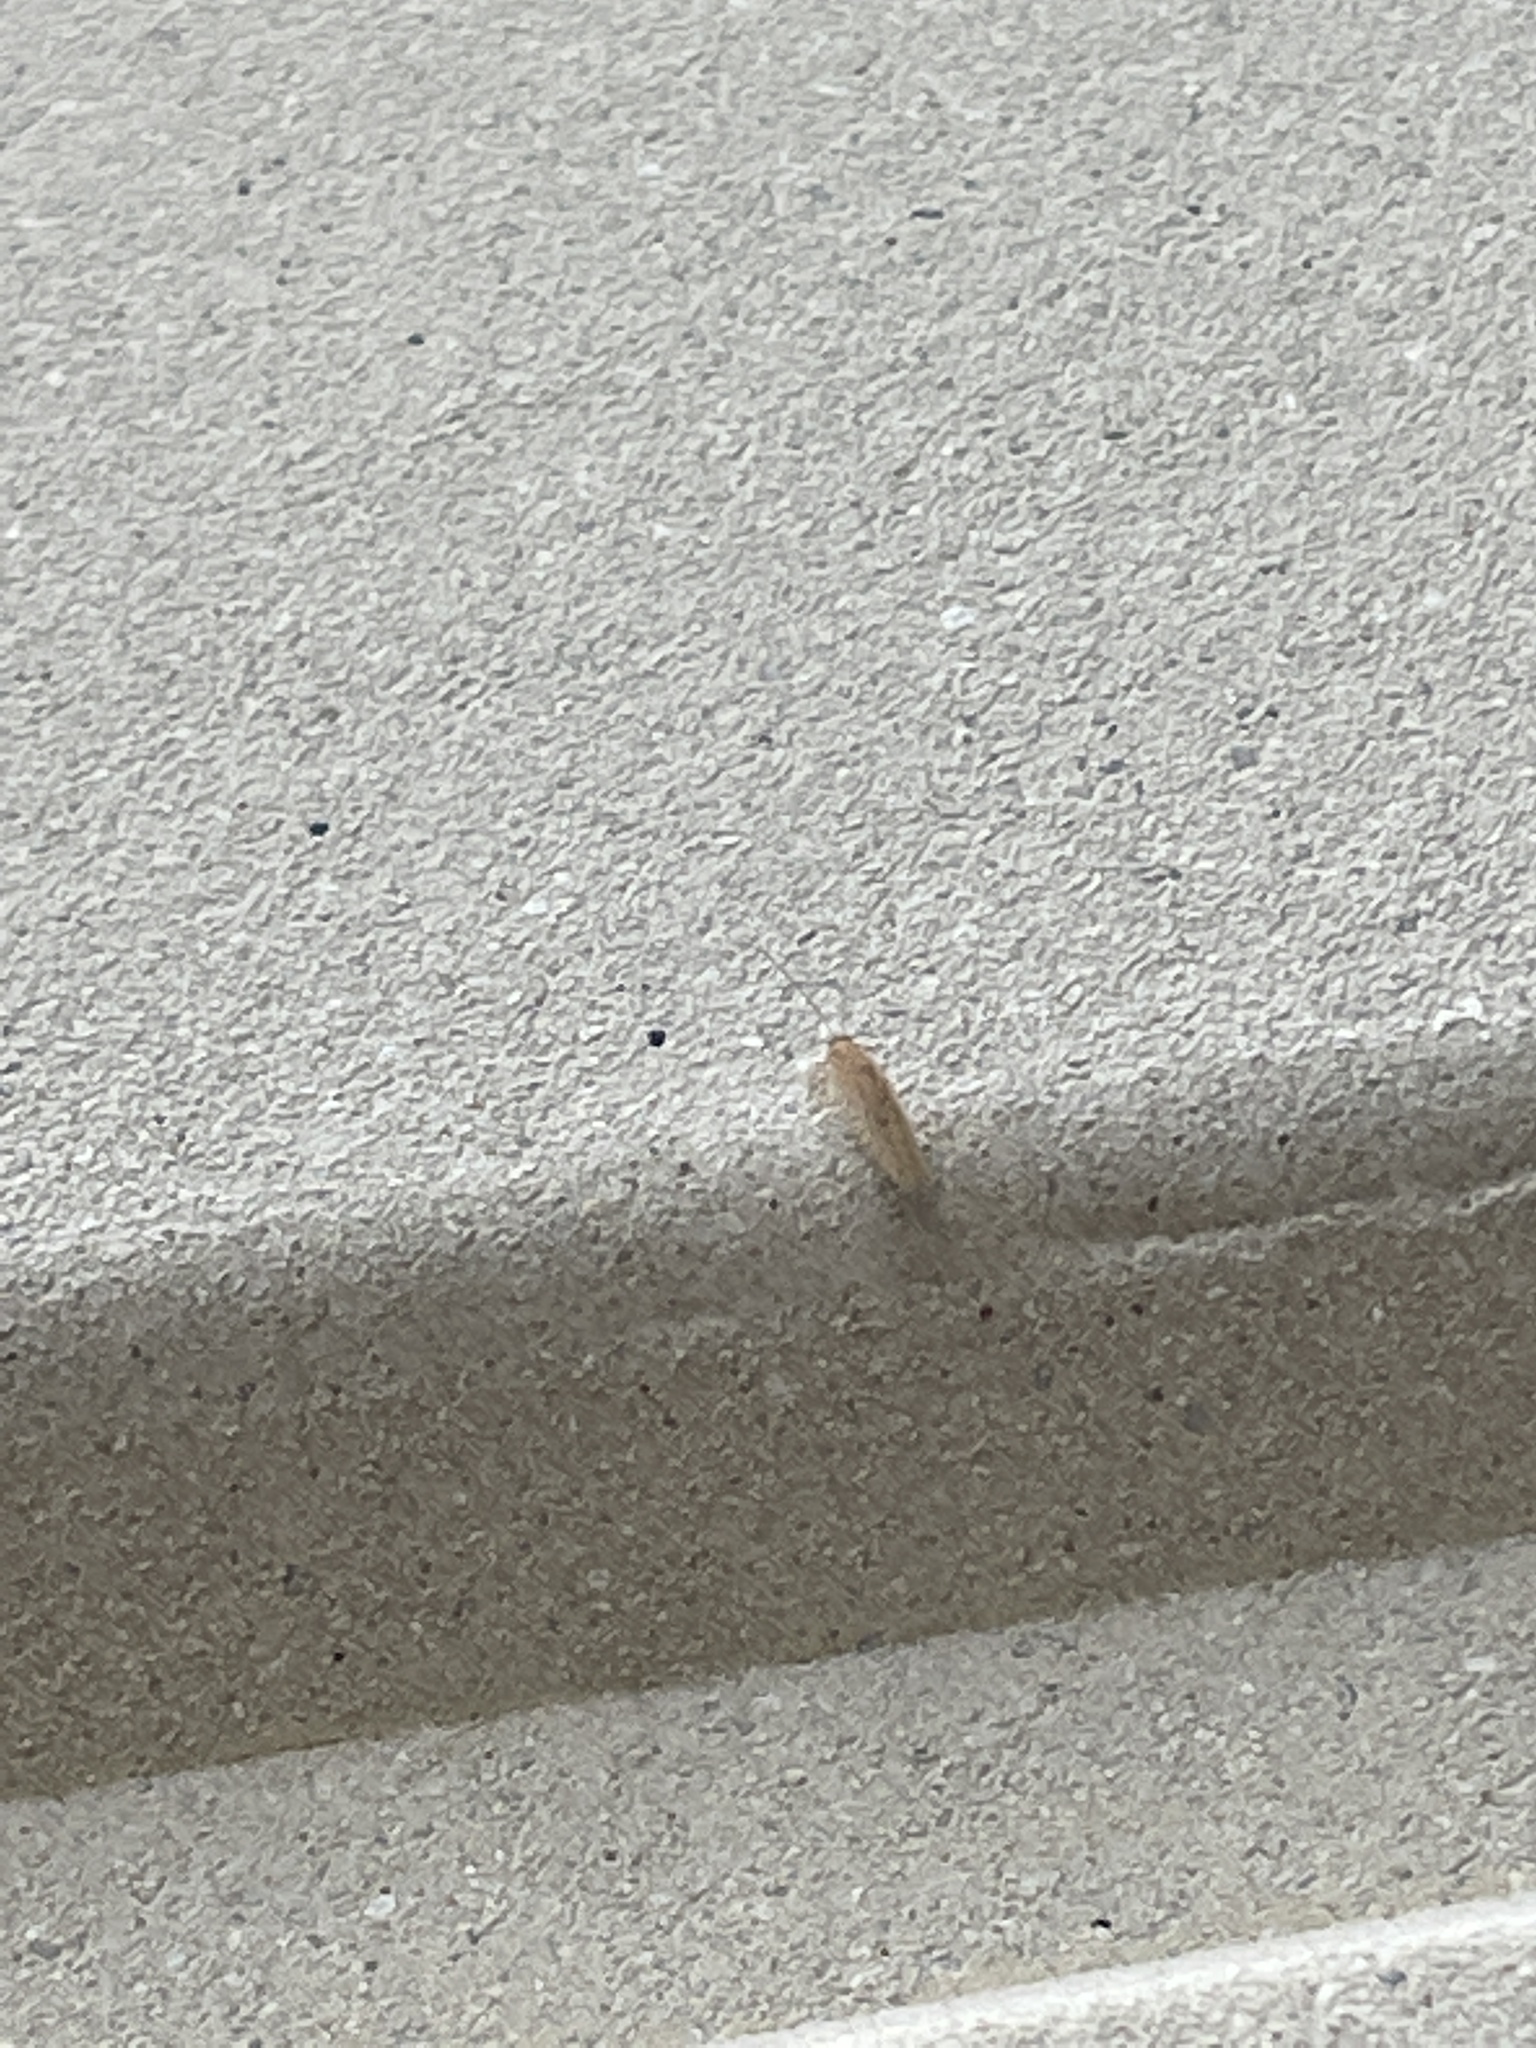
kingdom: Animalia
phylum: Arthropoda
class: Insecta
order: Neuroptera
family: Hemerobiidae
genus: Micromus
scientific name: Micromus posticus
